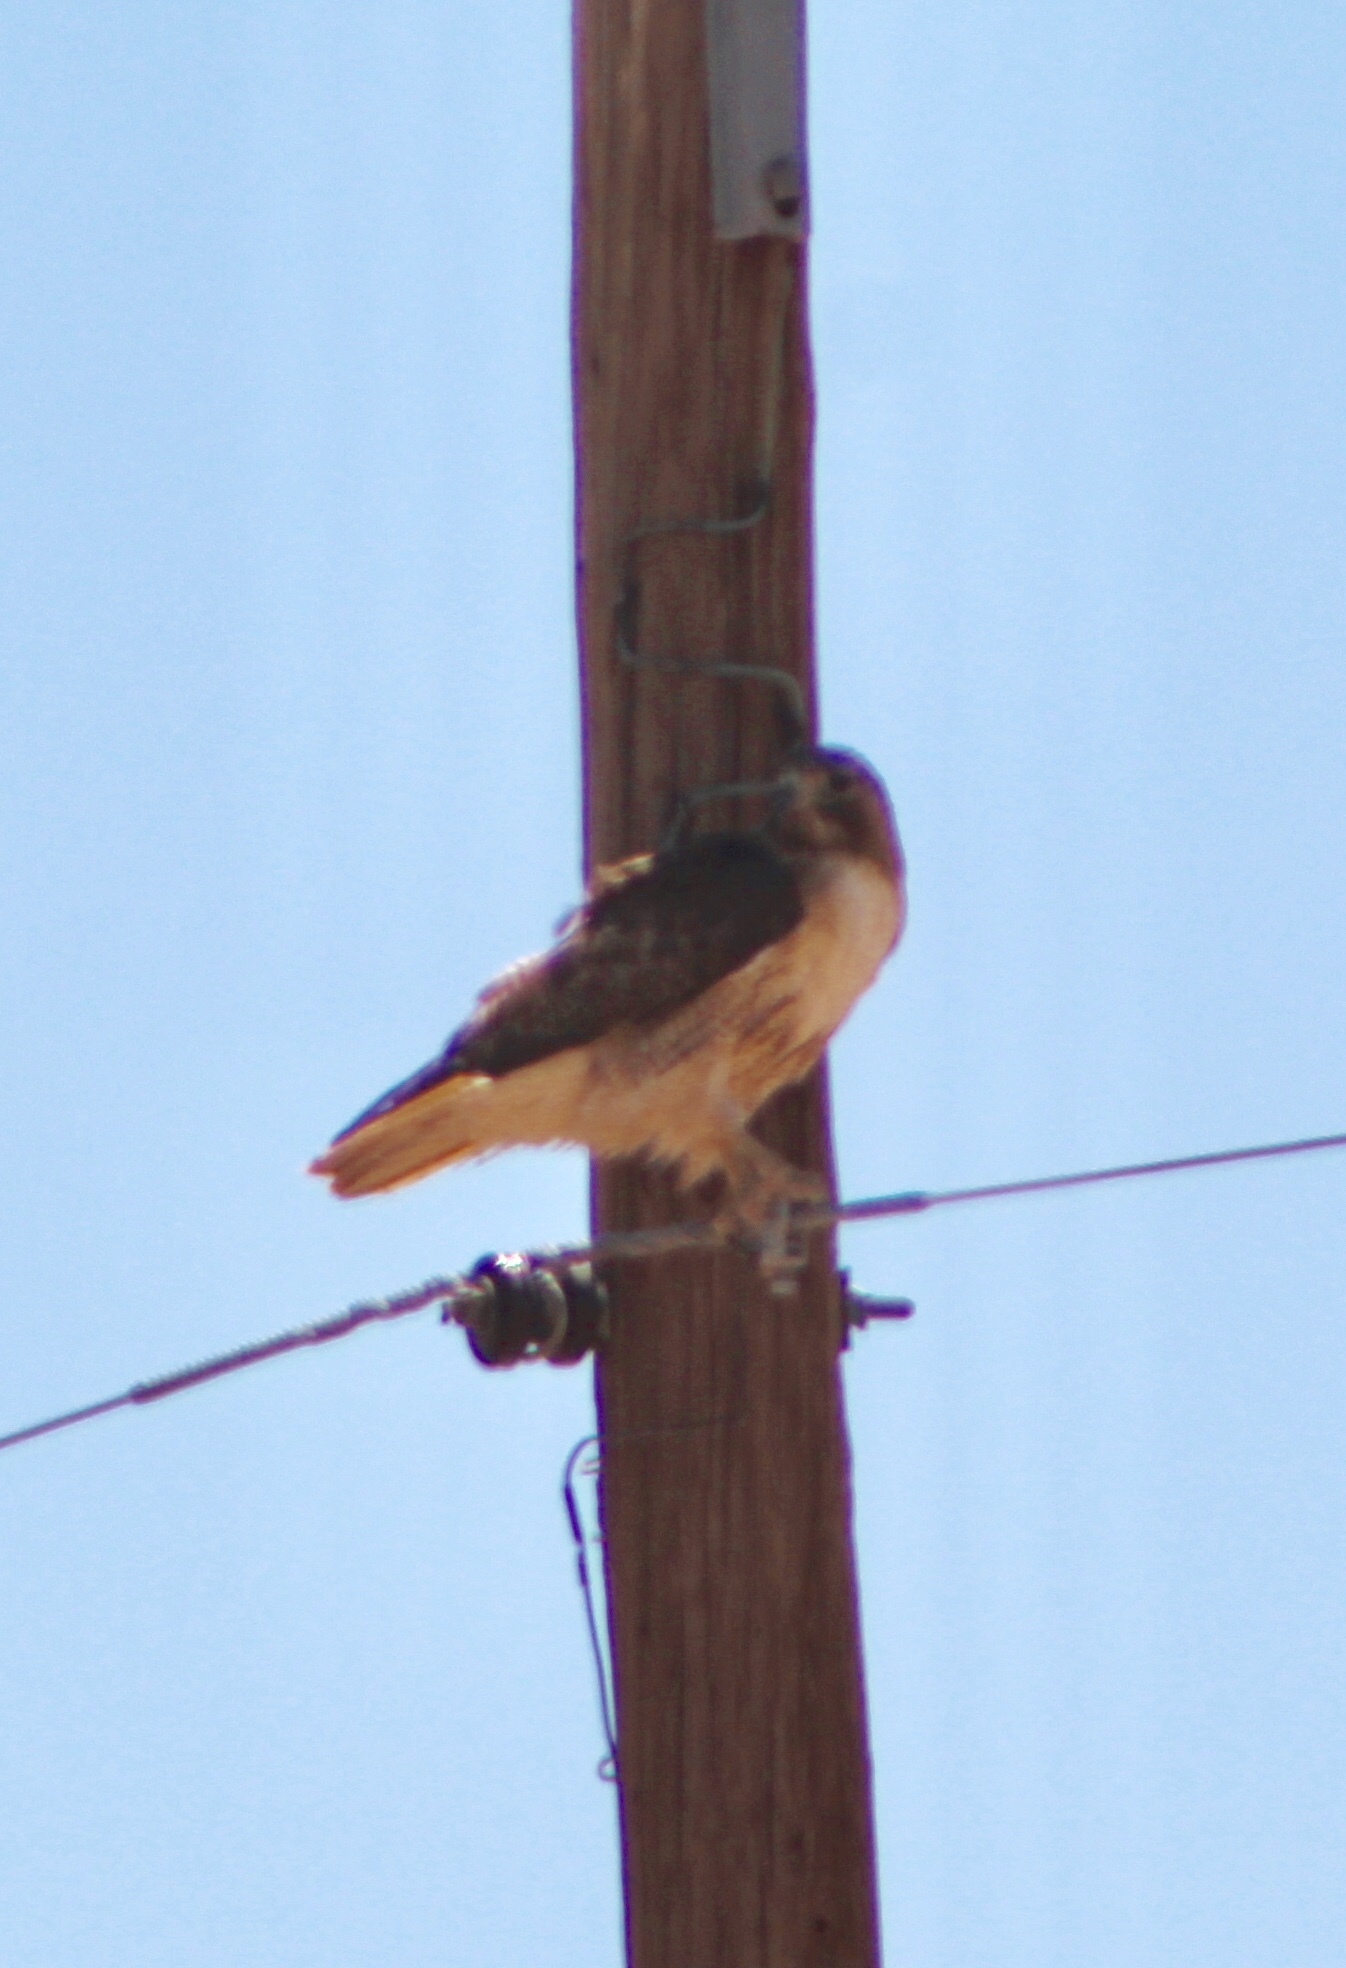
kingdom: Animalia
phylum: Chordata
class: Aves
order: Accipitriformes
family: Accipitridae
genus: Buteo
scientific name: Buteo jamaicensis
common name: Red-tailed hawk
